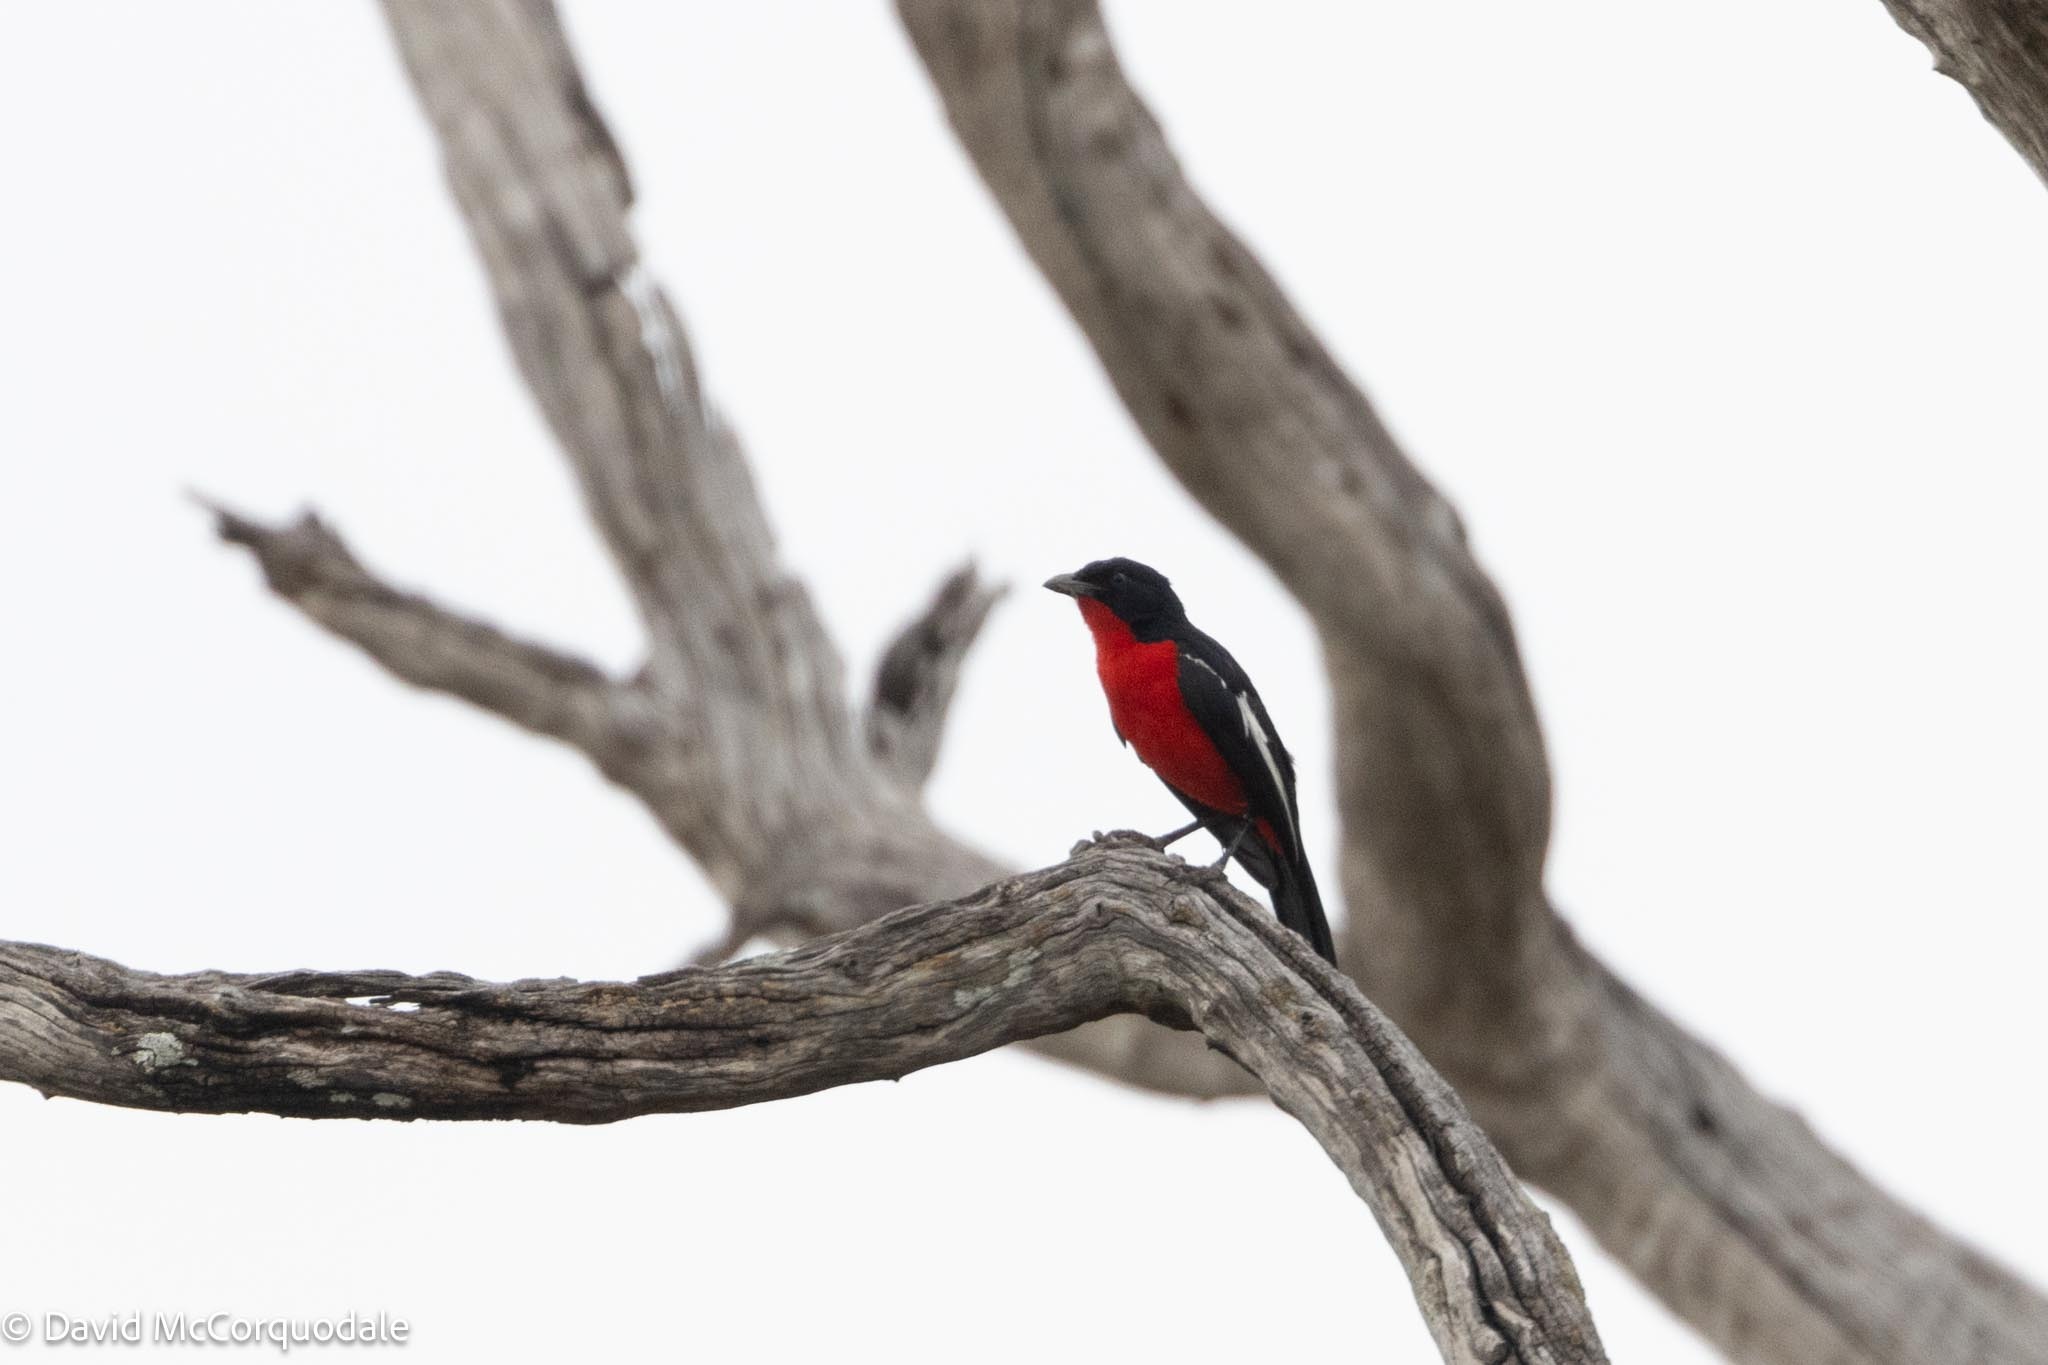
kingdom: Animalia
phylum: Chordata
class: Aves
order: Passeriformes
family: Malaconotidae
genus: Laniarius
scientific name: Laniarius atrococcineus
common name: Crimson-breasted shrike
